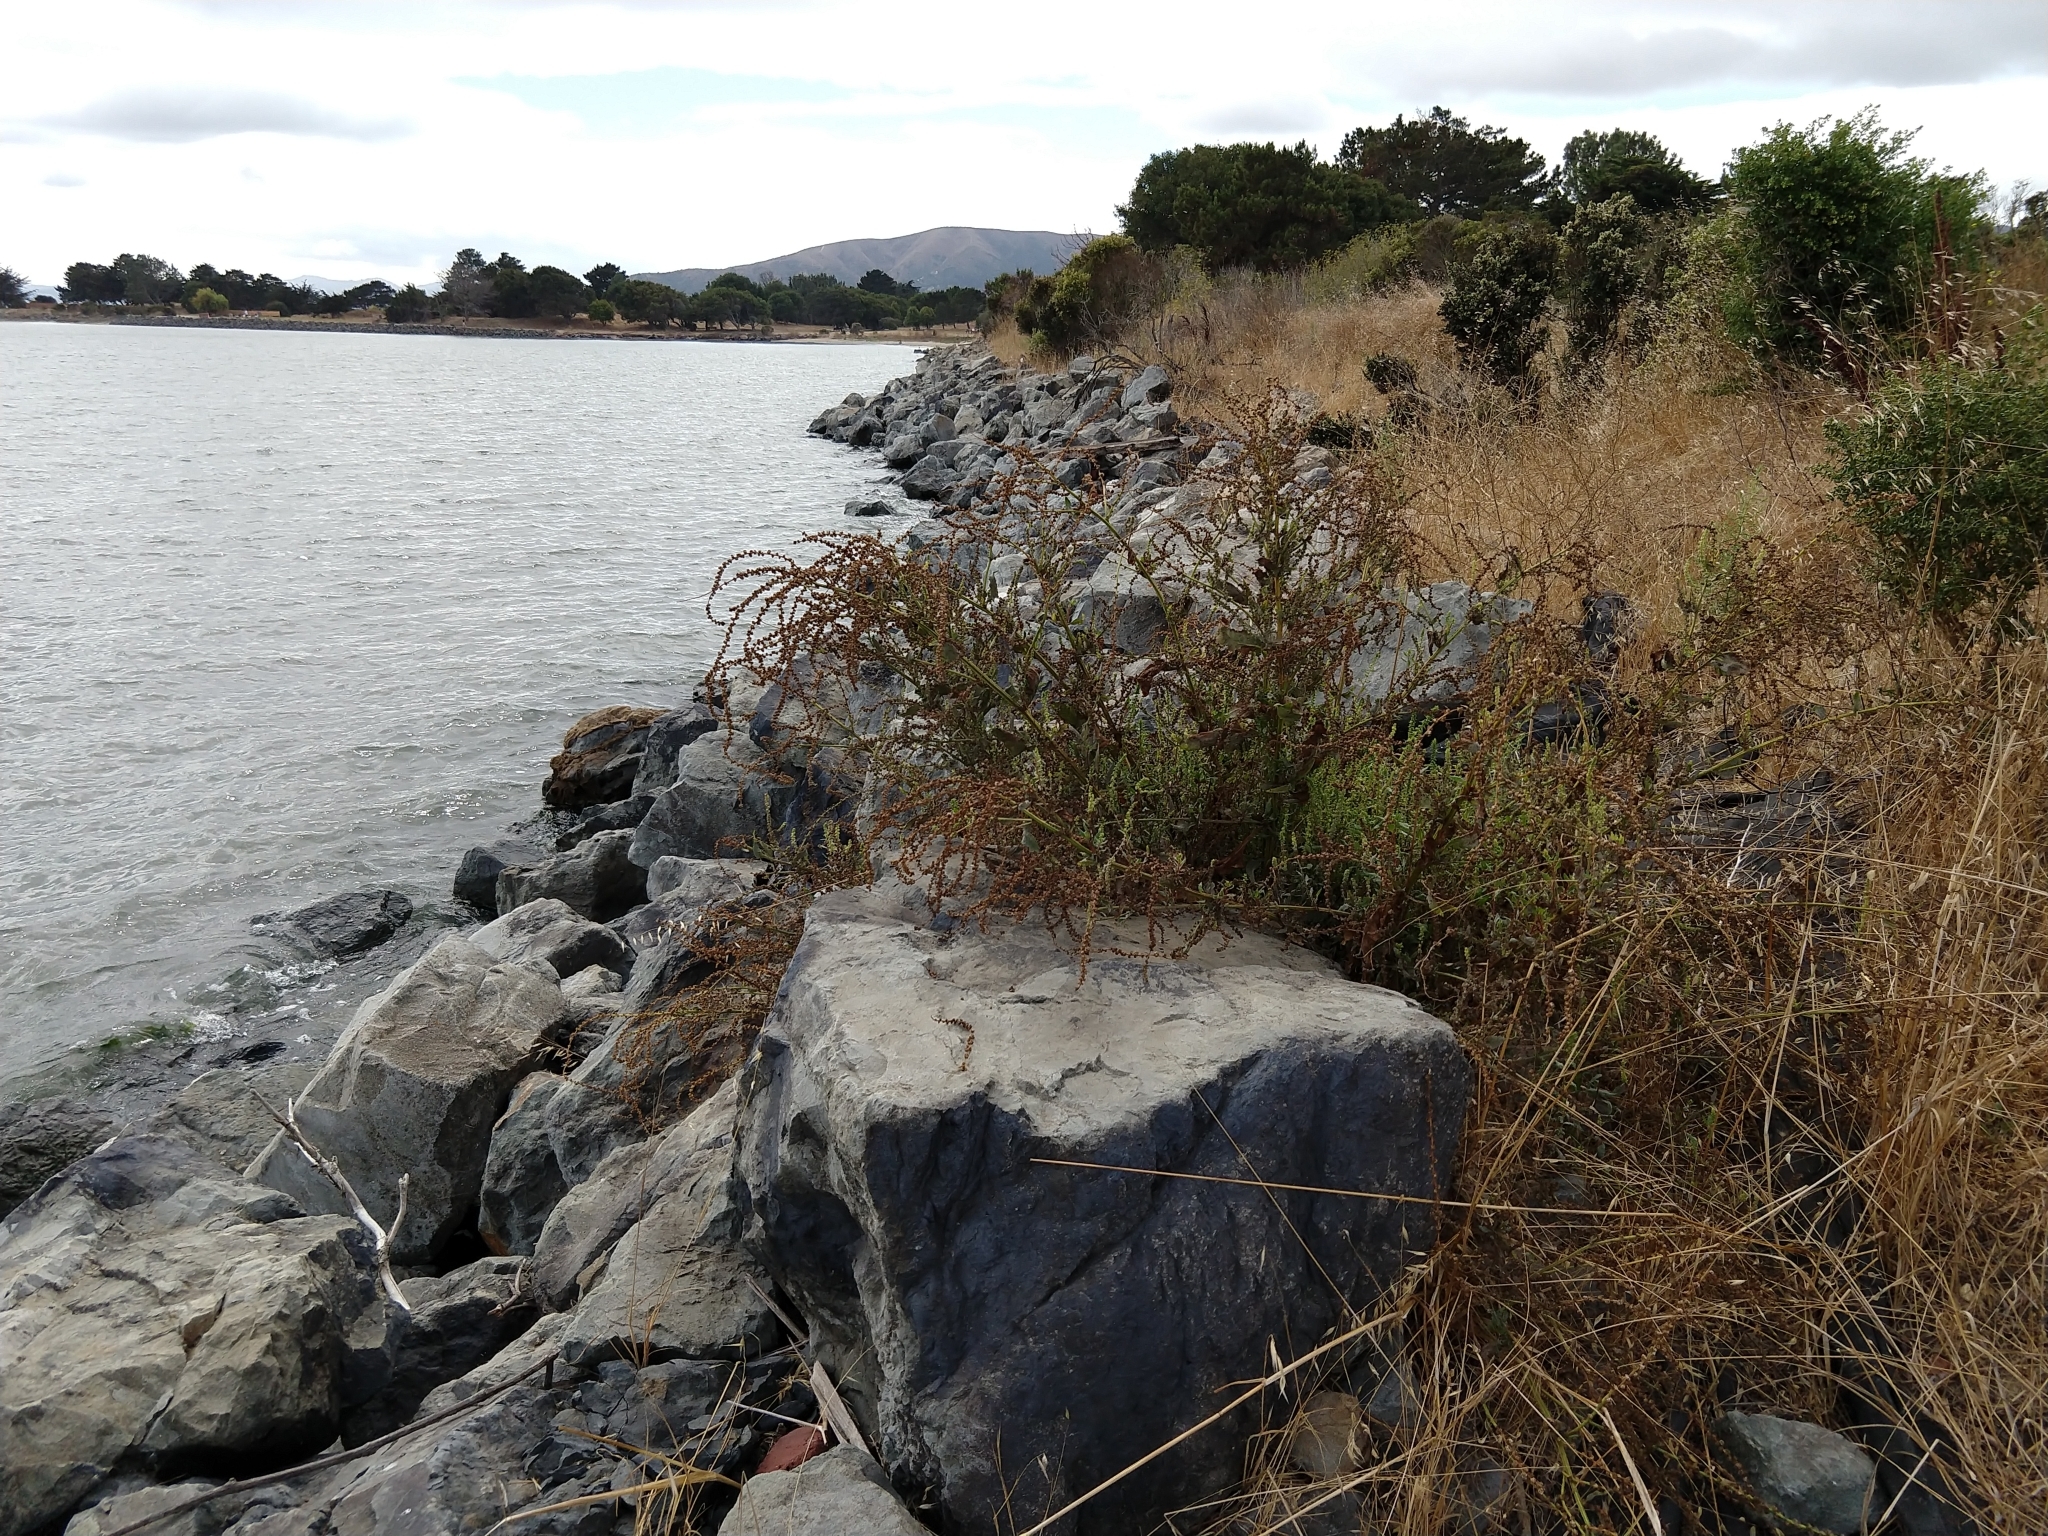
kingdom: Plantae
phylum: Tracheophyta
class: Magnoliopsida
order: Caryophyllales
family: Amaranthaceae
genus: Beta
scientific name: Beta vulgaris
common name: Beet
